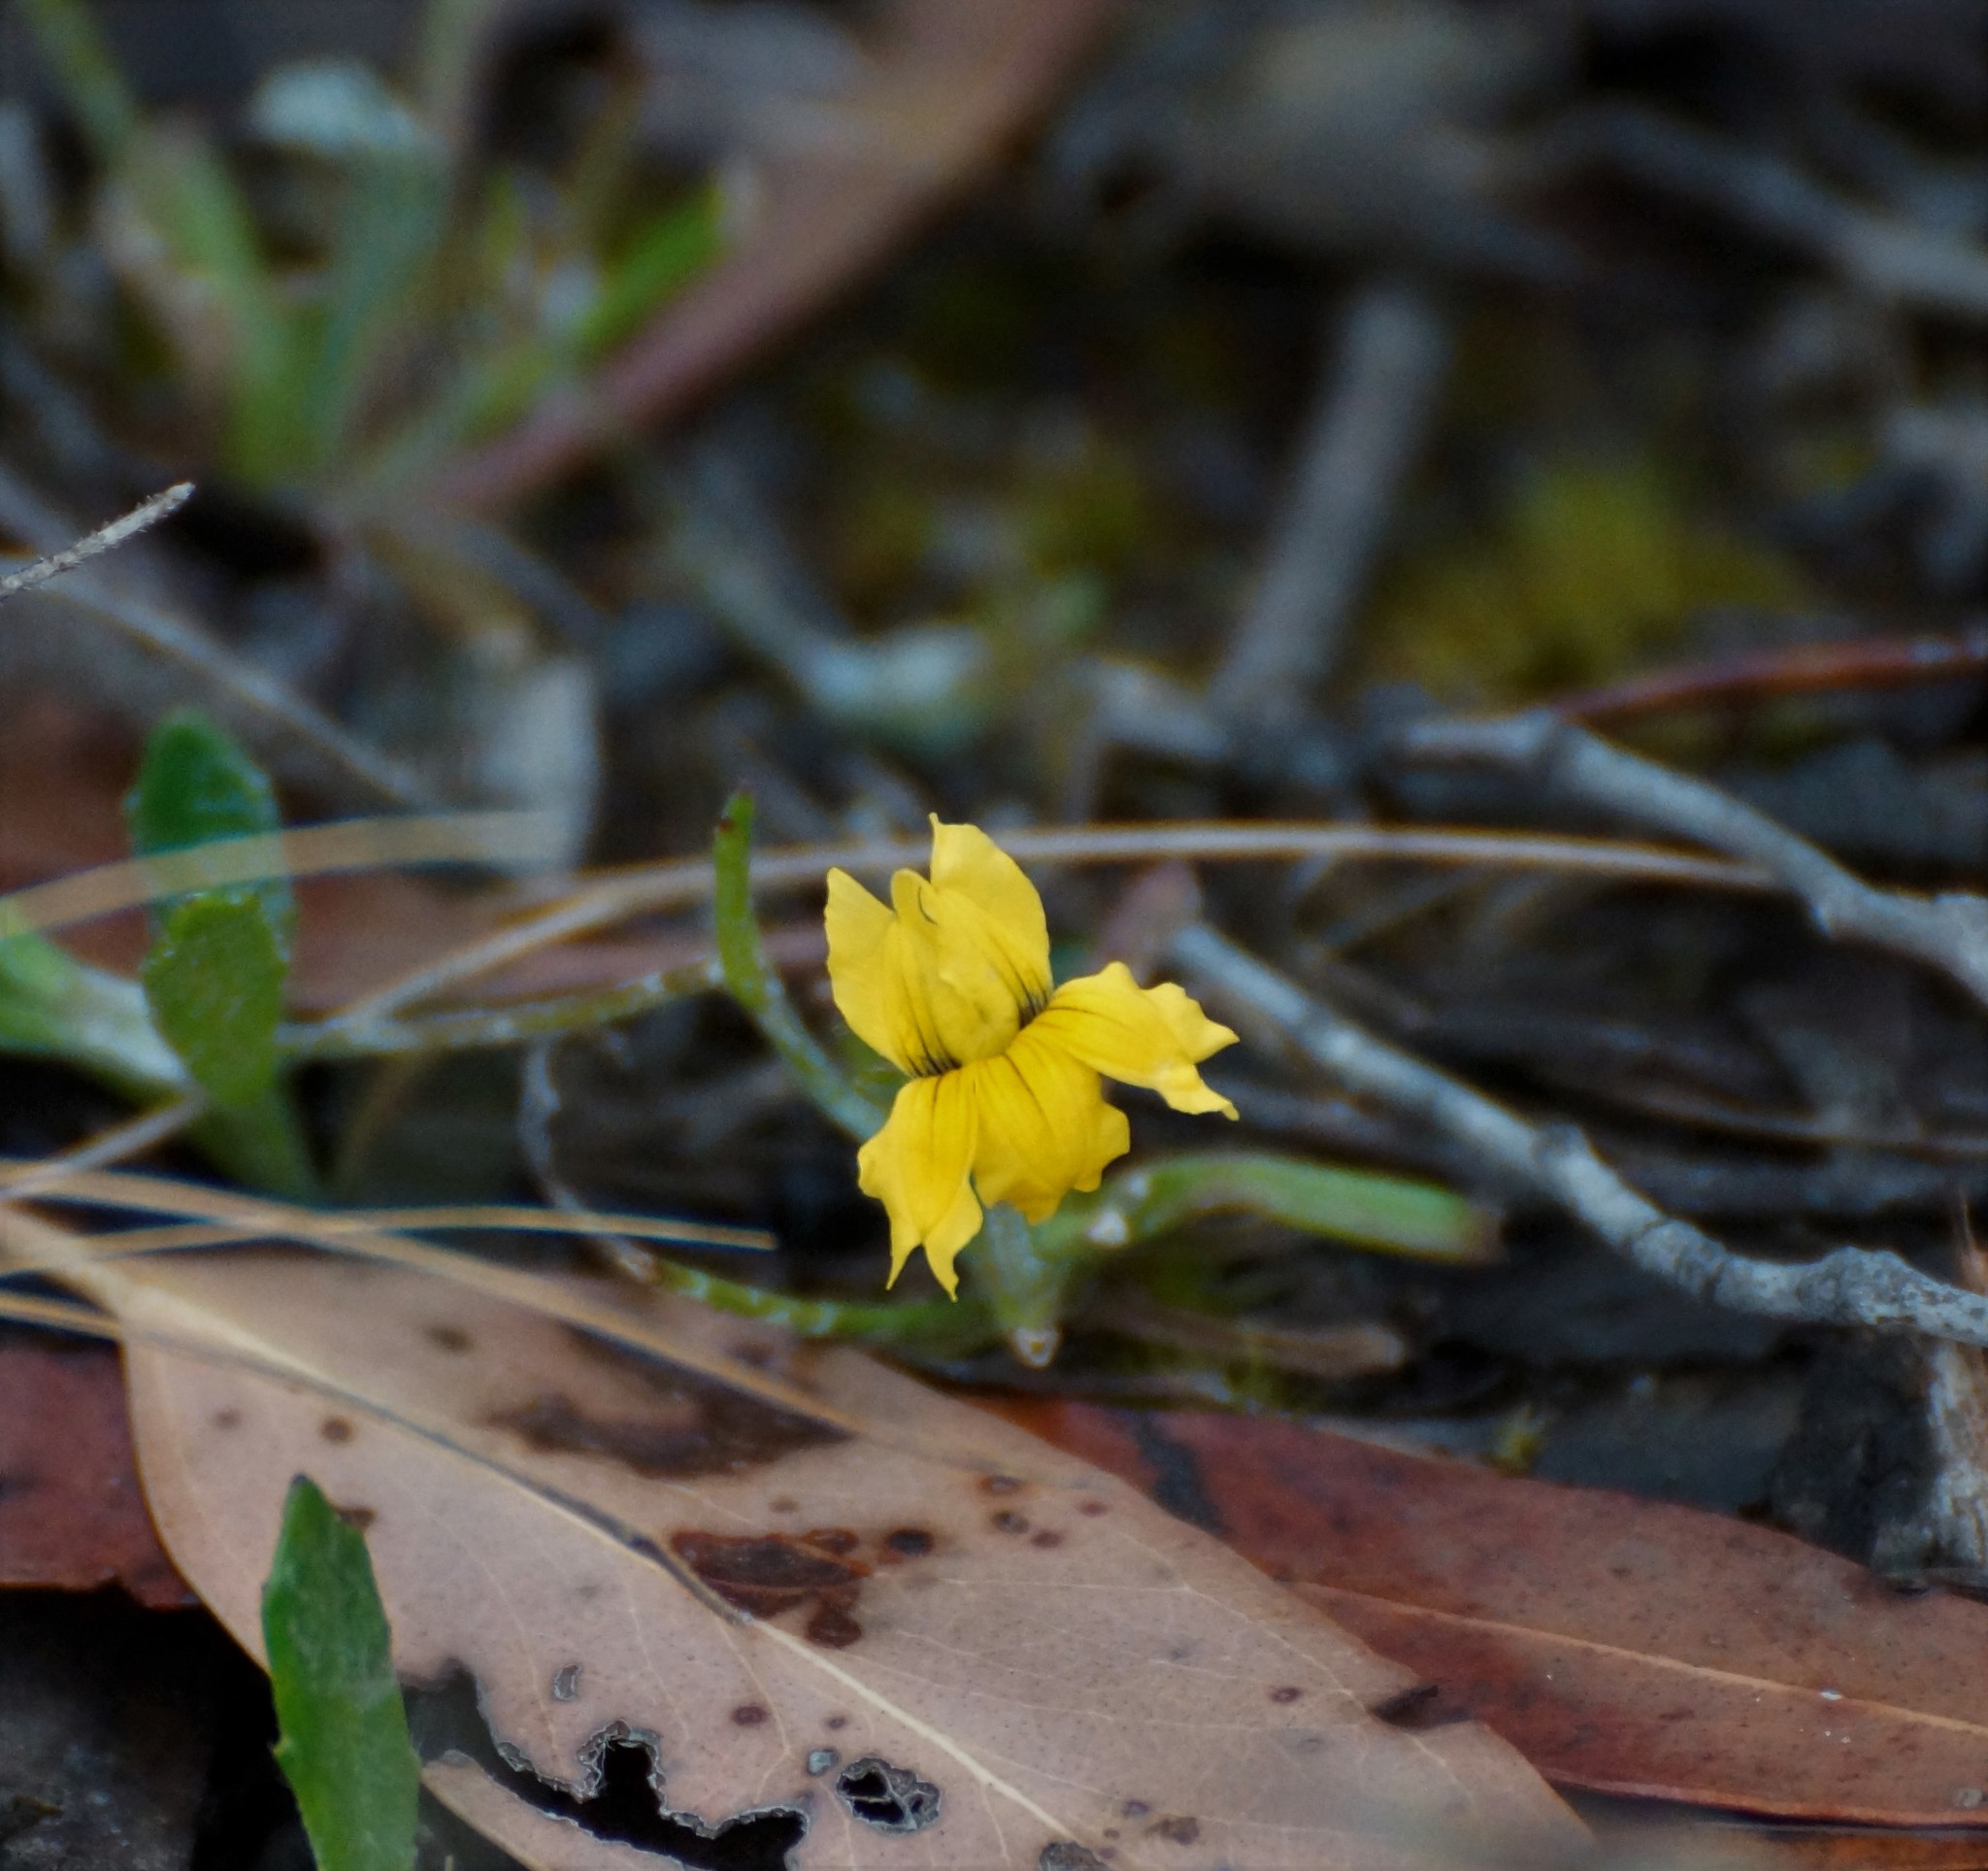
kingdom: Plantae
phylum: Tracheophyta
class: Magnoliopsida
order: Asterales
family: Goodeniaceae
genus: Goodenia
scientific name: Goodenia lanata
